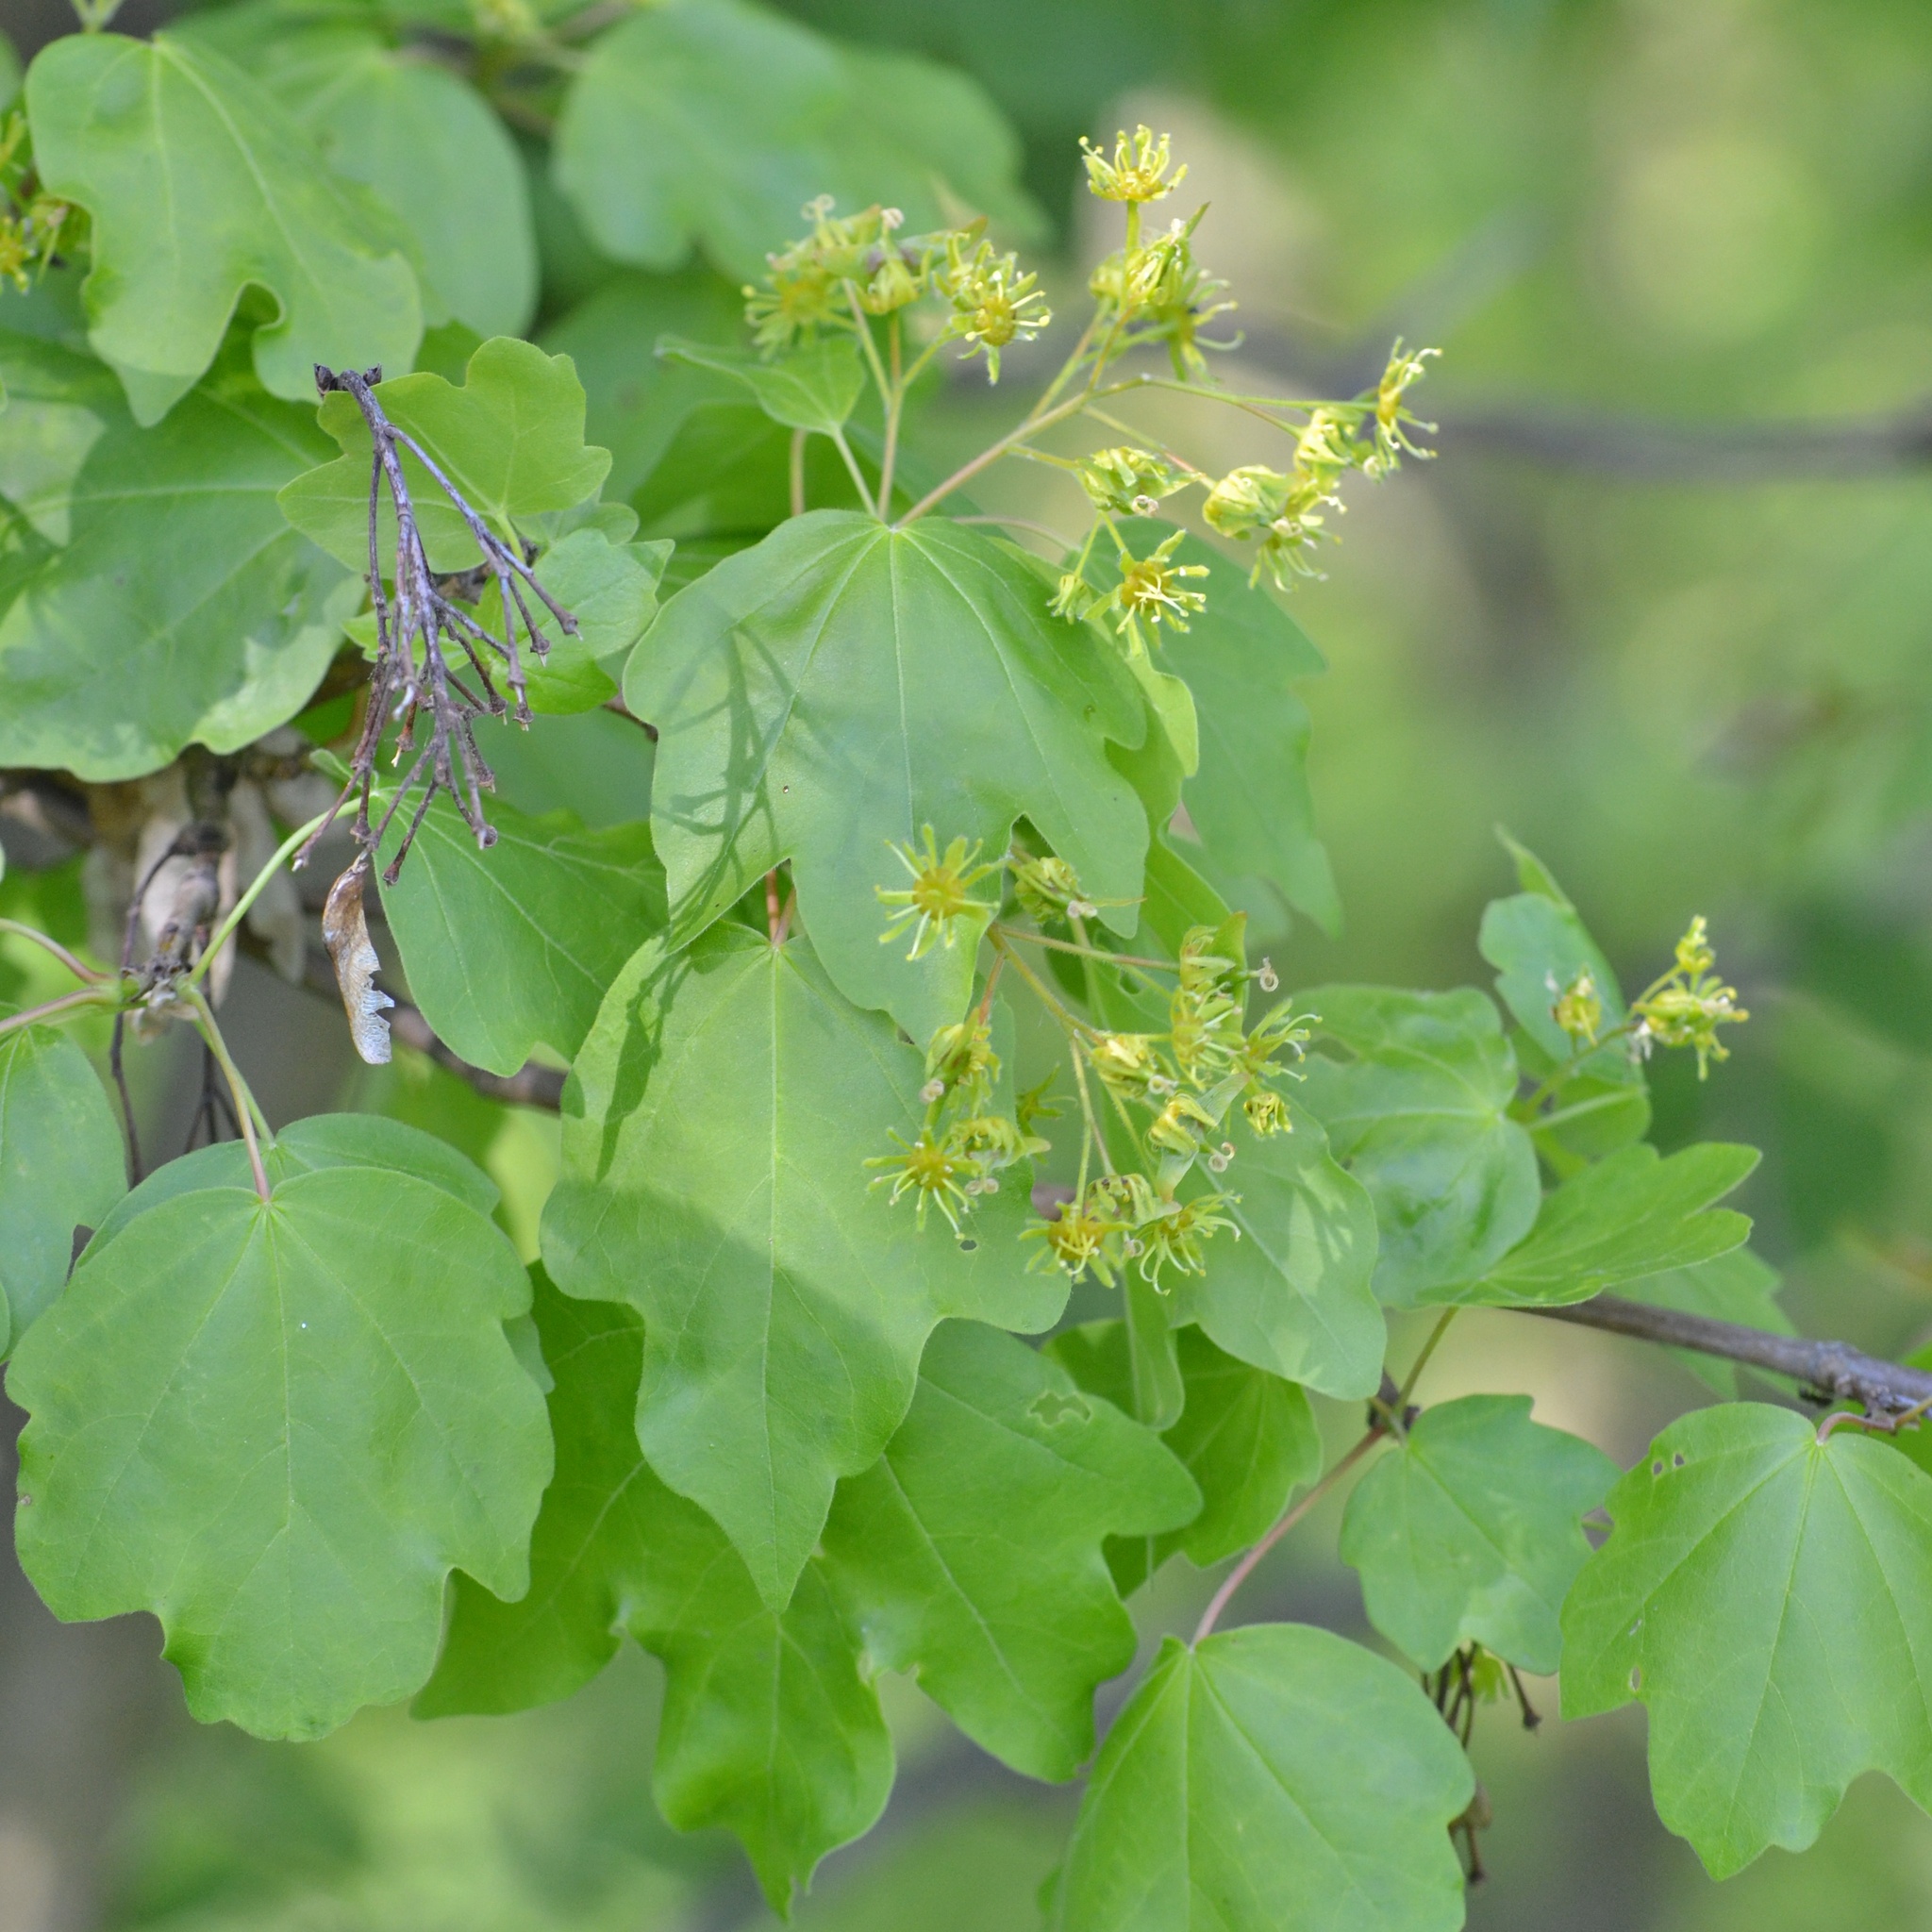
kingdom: Plantae
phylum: Tracheophyta
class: Magnoliopsida
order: Sapindales
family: Sapindaceae
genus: Acer
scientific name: Acer campestre
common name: Field maple
